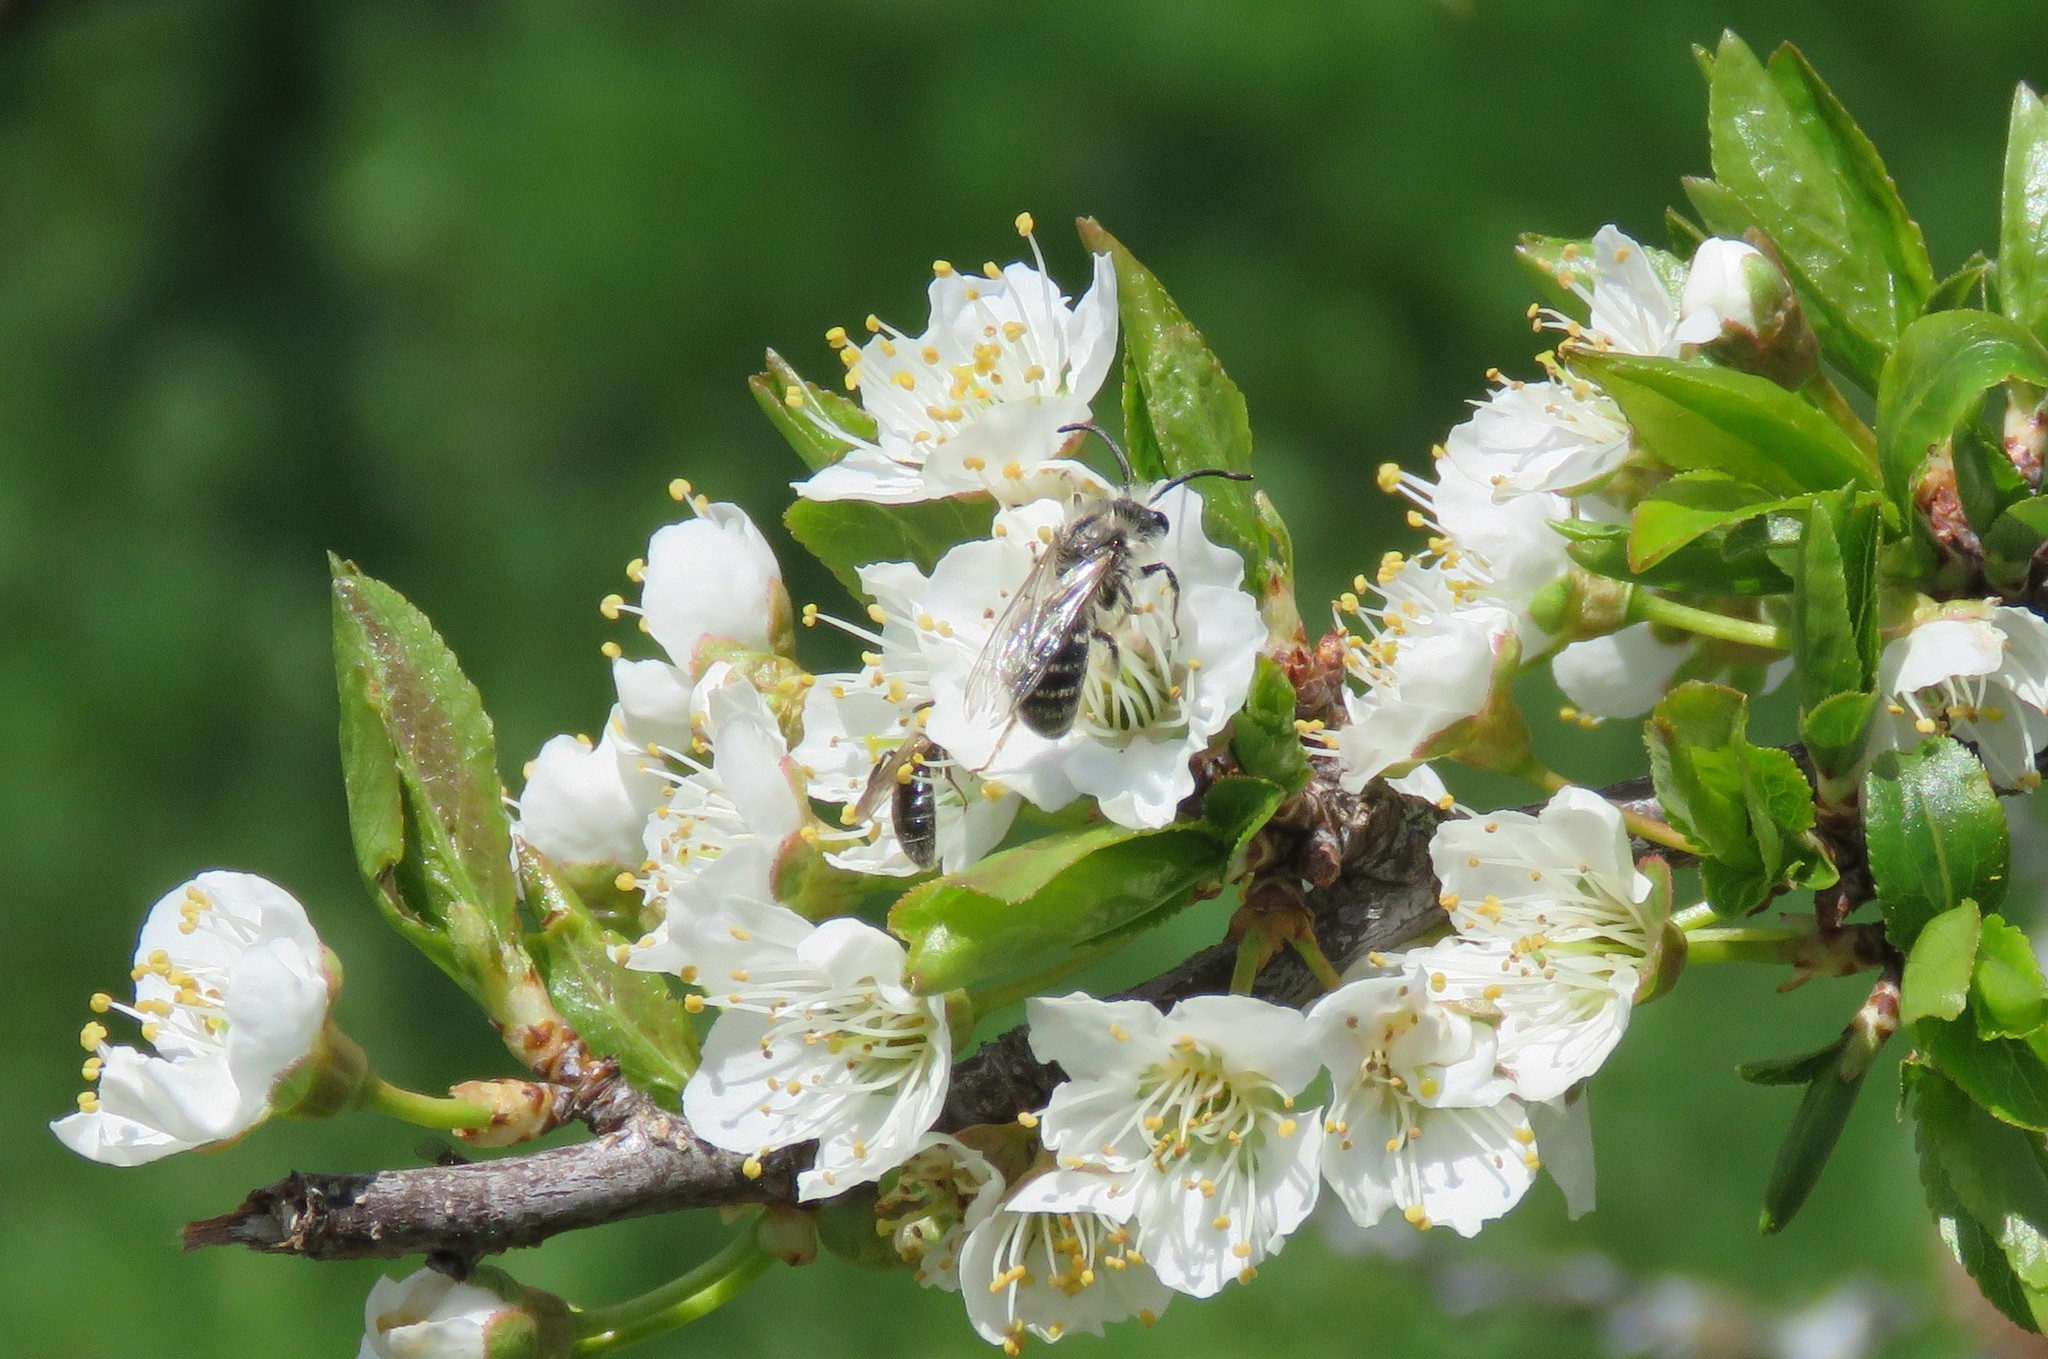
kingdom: Animalia
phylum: Arthropoda
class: Insecta
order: Hymenoptera
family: Colletidae
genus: Colletes
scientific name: Colletes inaequalis
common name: Unequal cellophane bee
